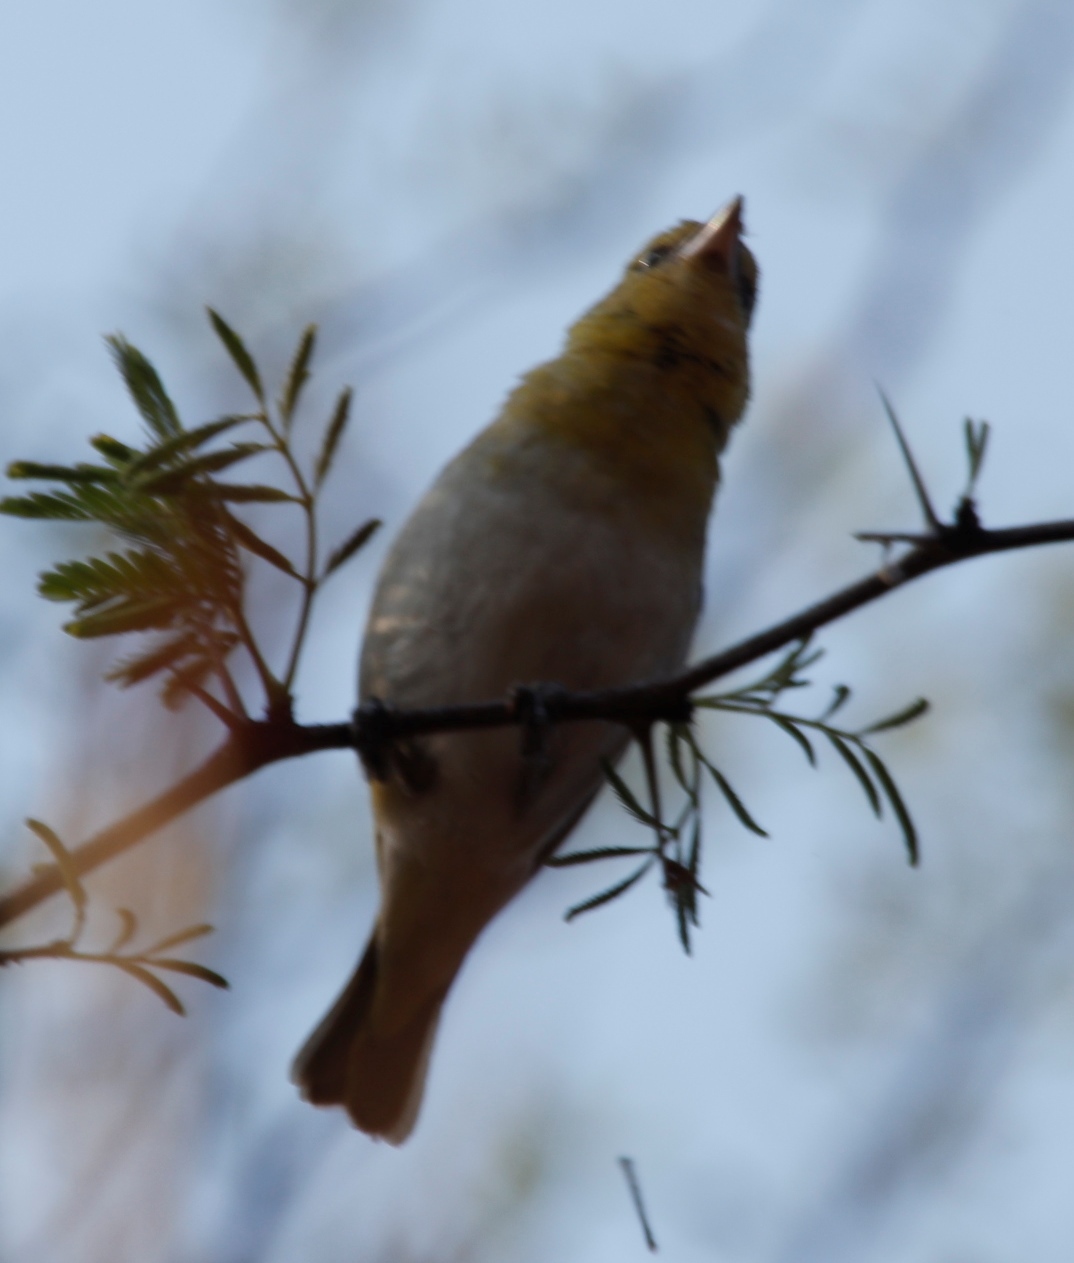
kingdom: Animalia
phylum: Chordata
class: Aves
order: Passeriformes
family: Ploceidae
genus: Ploceus
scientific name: Ploceus intermedius
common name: Lesser masked weaver
